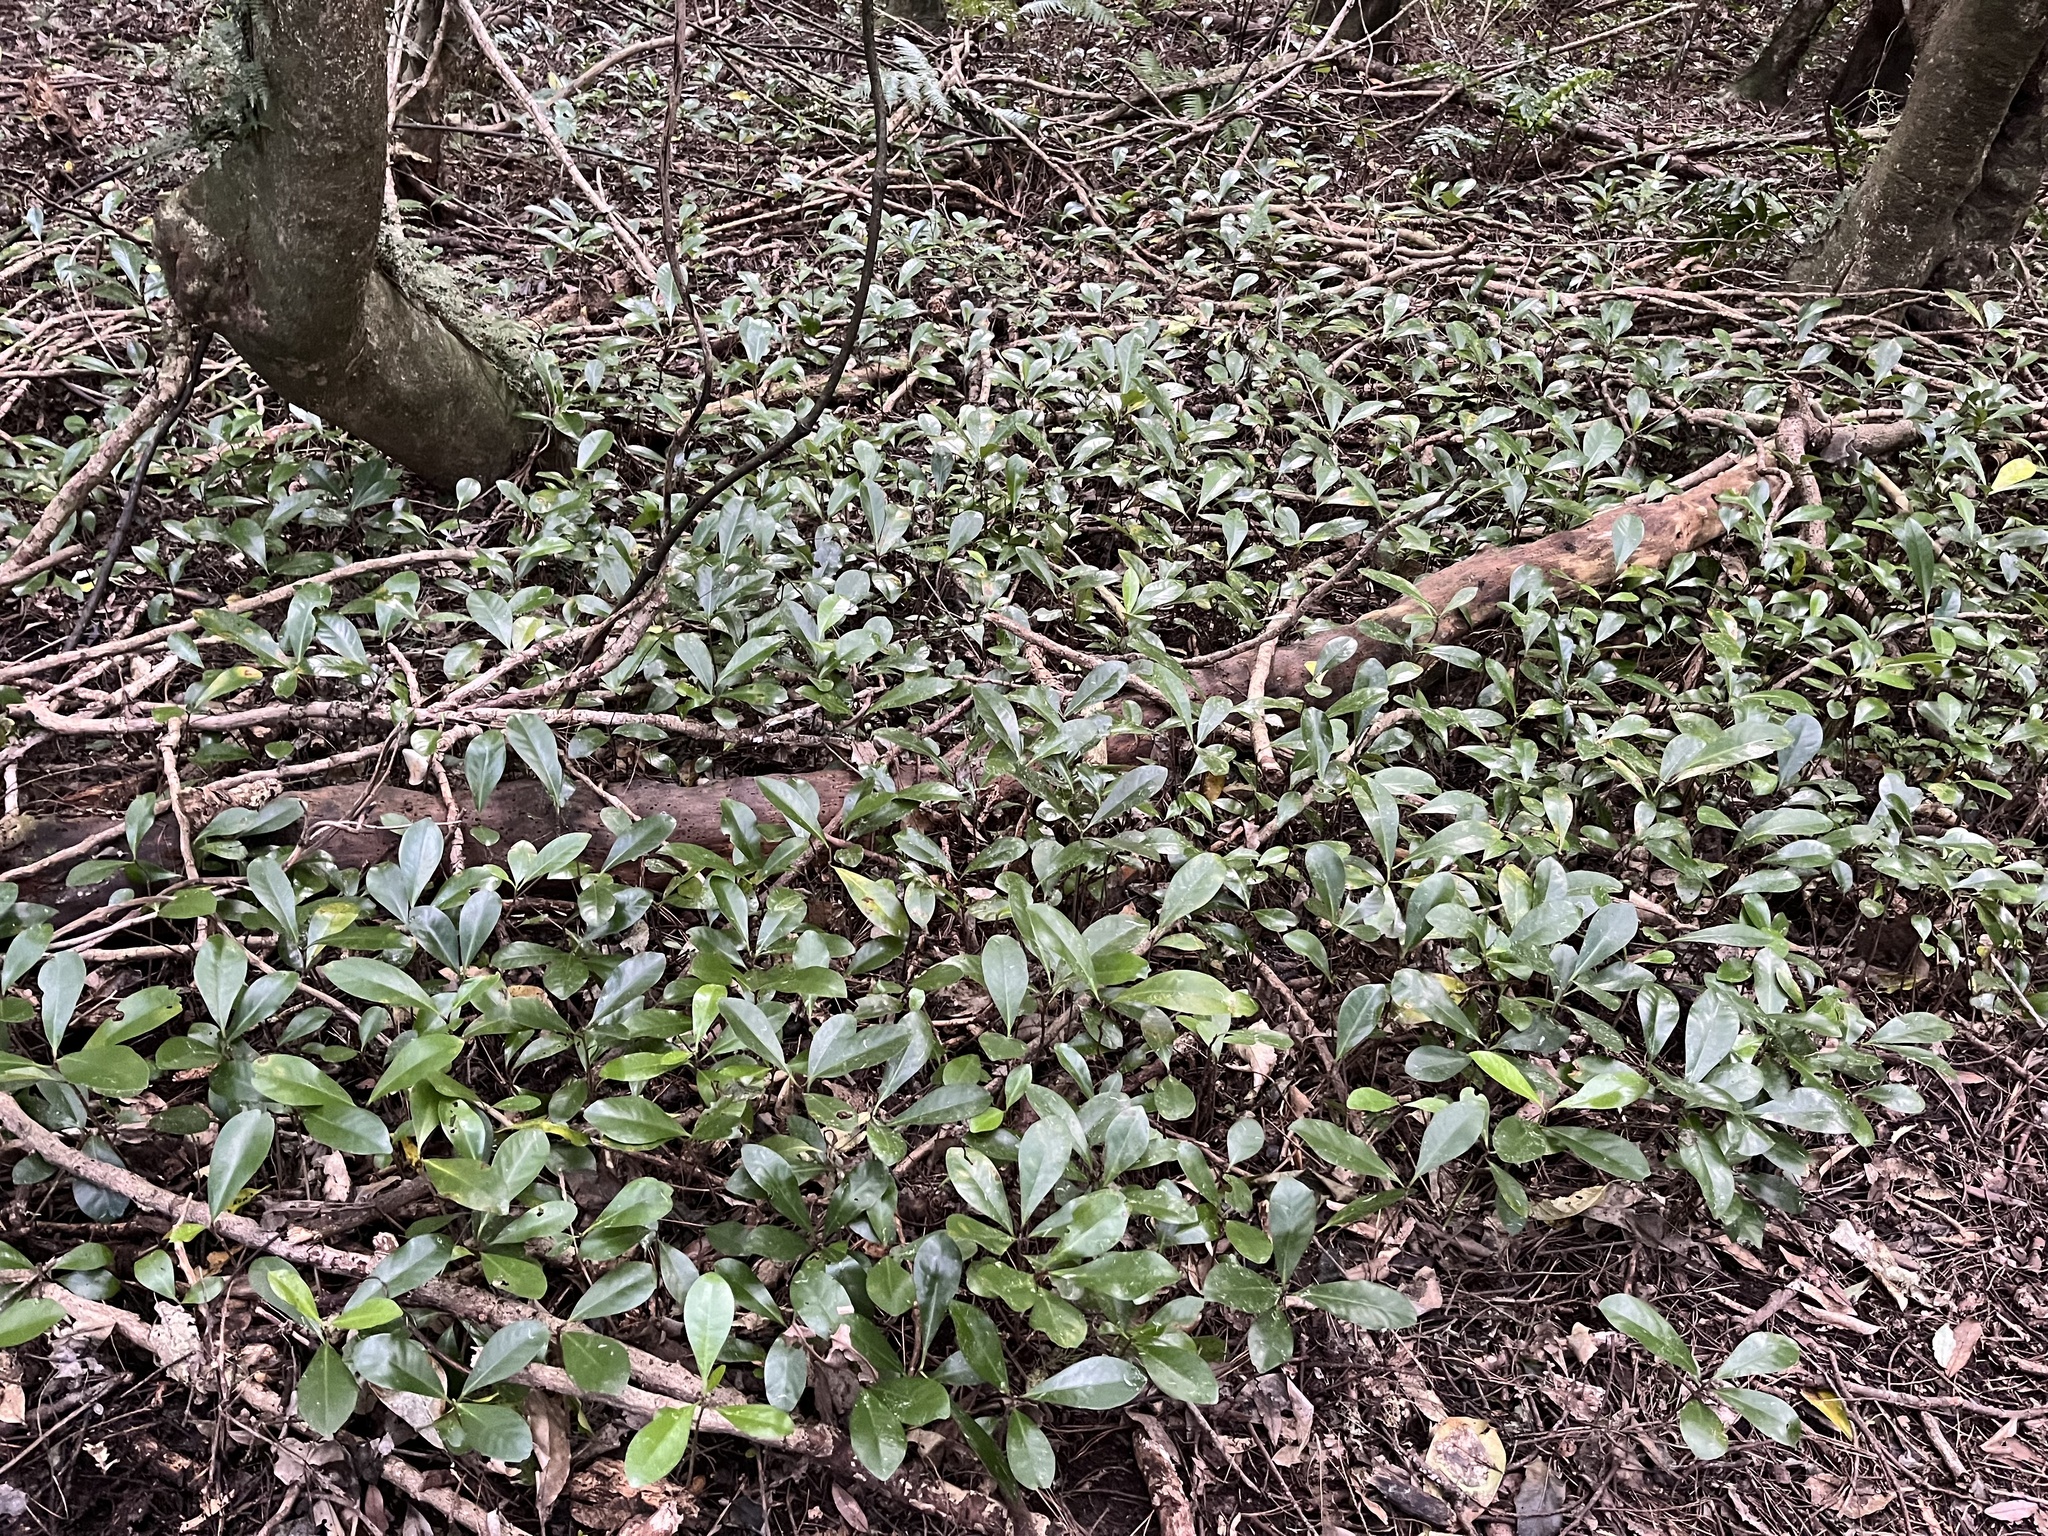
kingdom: Plantae
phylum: Tracheophyta
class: Magnoliopsida
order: Cucurbitales
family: Corynocarpaceae
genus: Corynocarpus
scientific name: Corynocarpus laevigatus
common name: New zealand laurel
